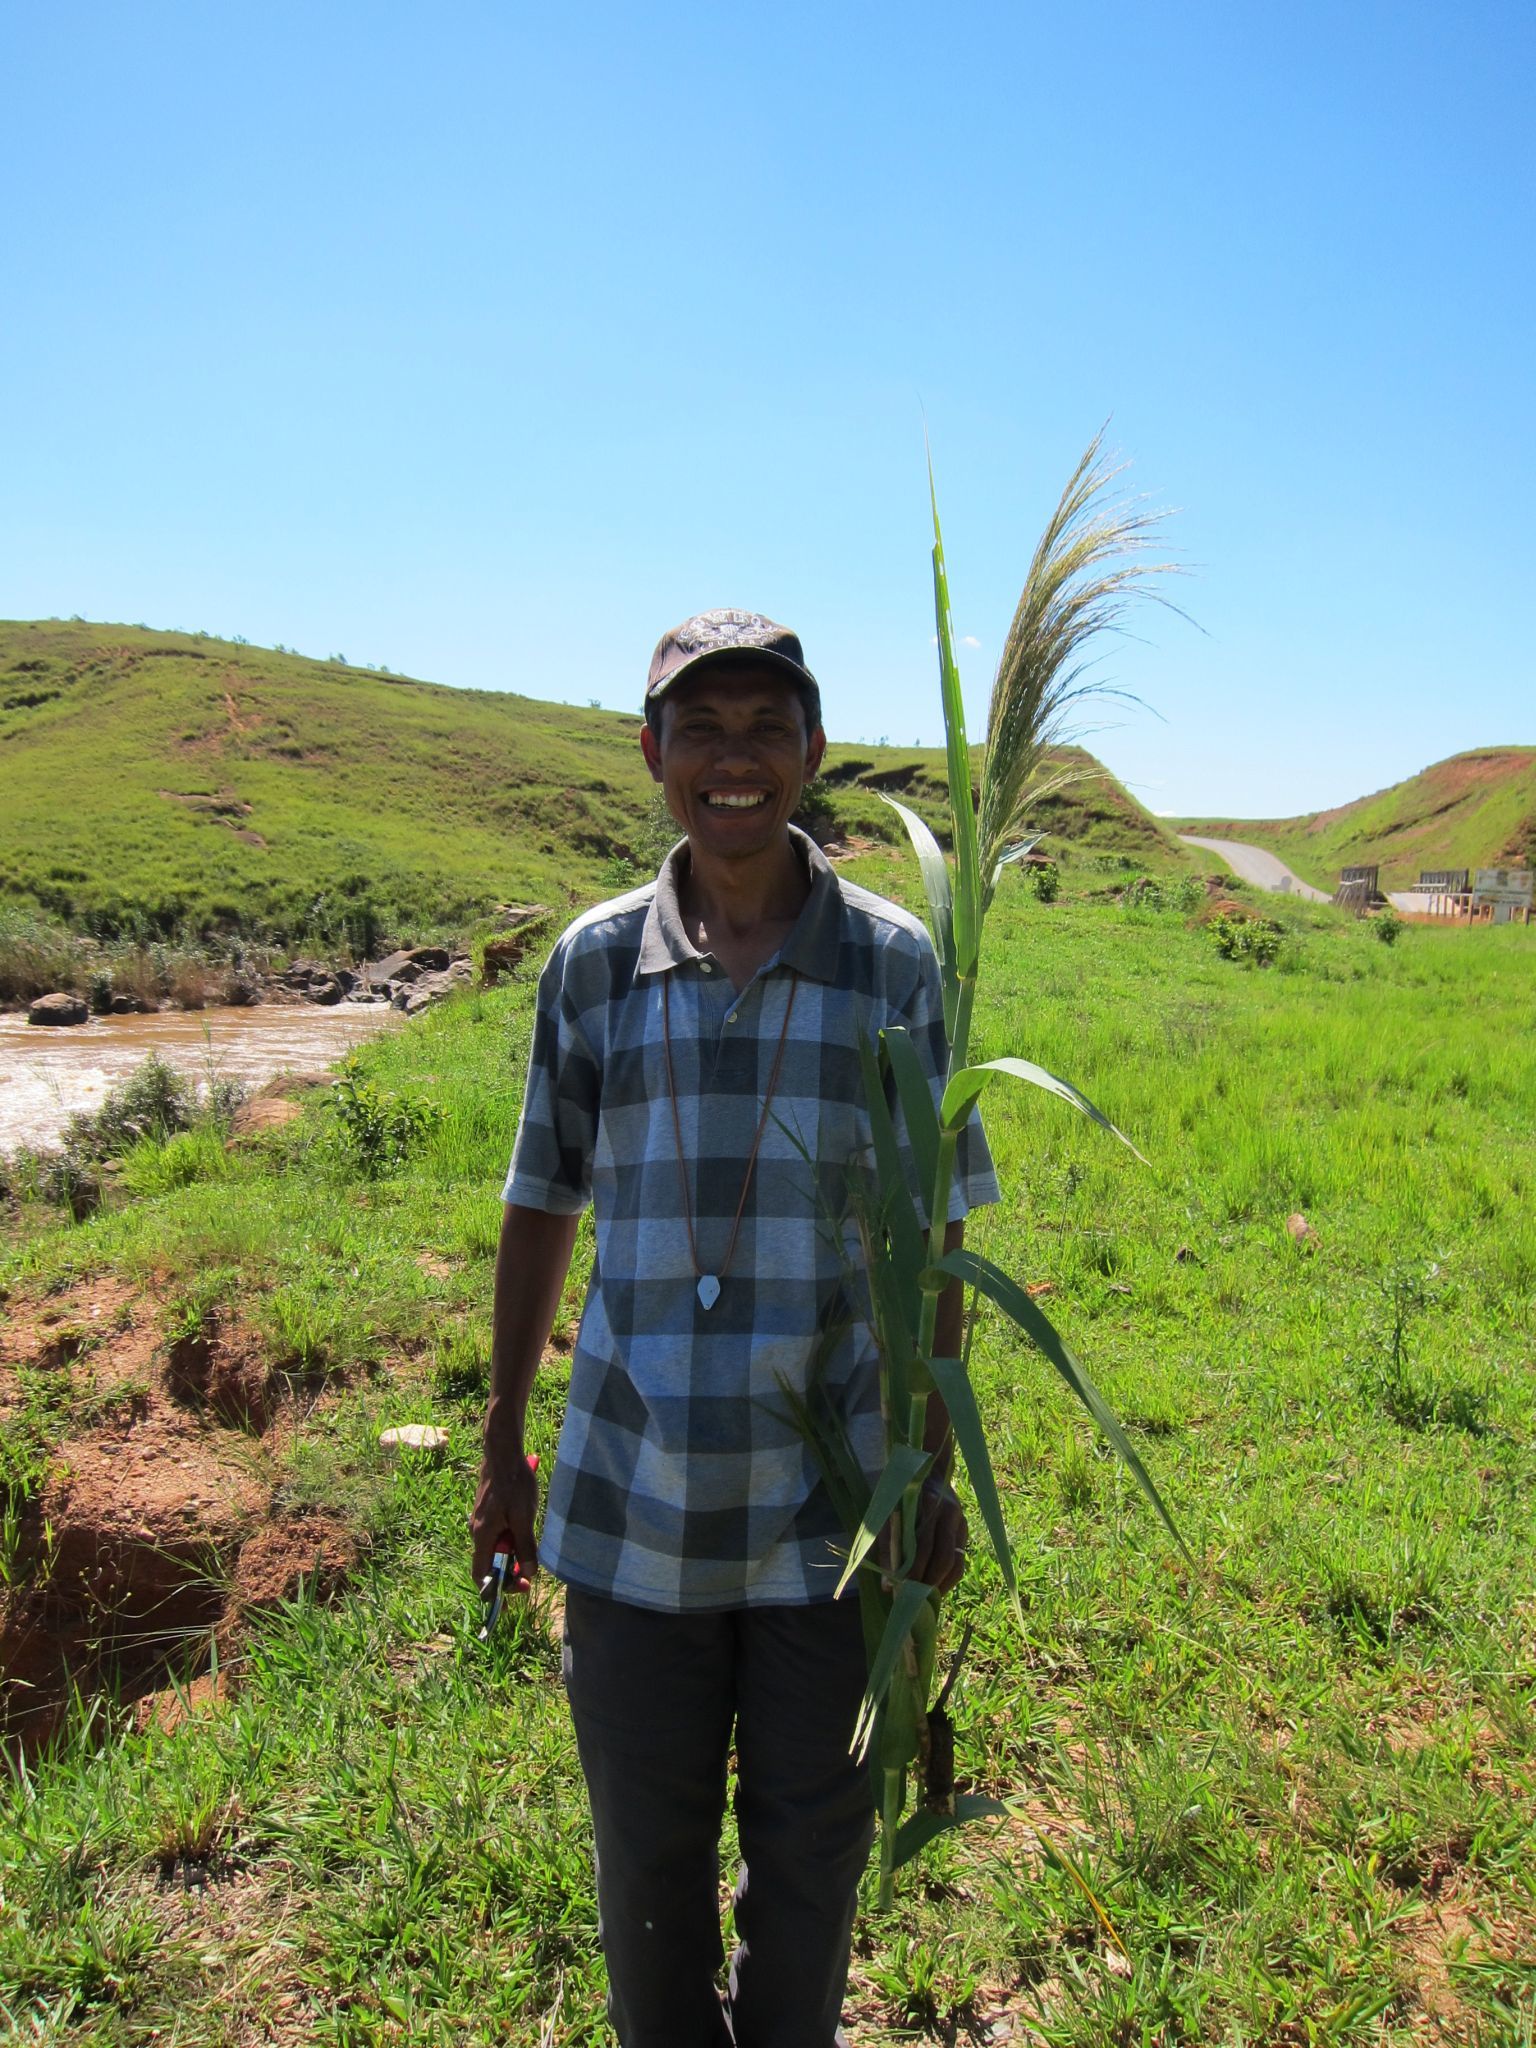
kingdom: Plantae
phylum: Tracheophyta
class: Liliopsida
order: Poales
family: Poaceae
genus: Phragmites
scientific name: Phragmites mauritianus
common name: Reed grass
